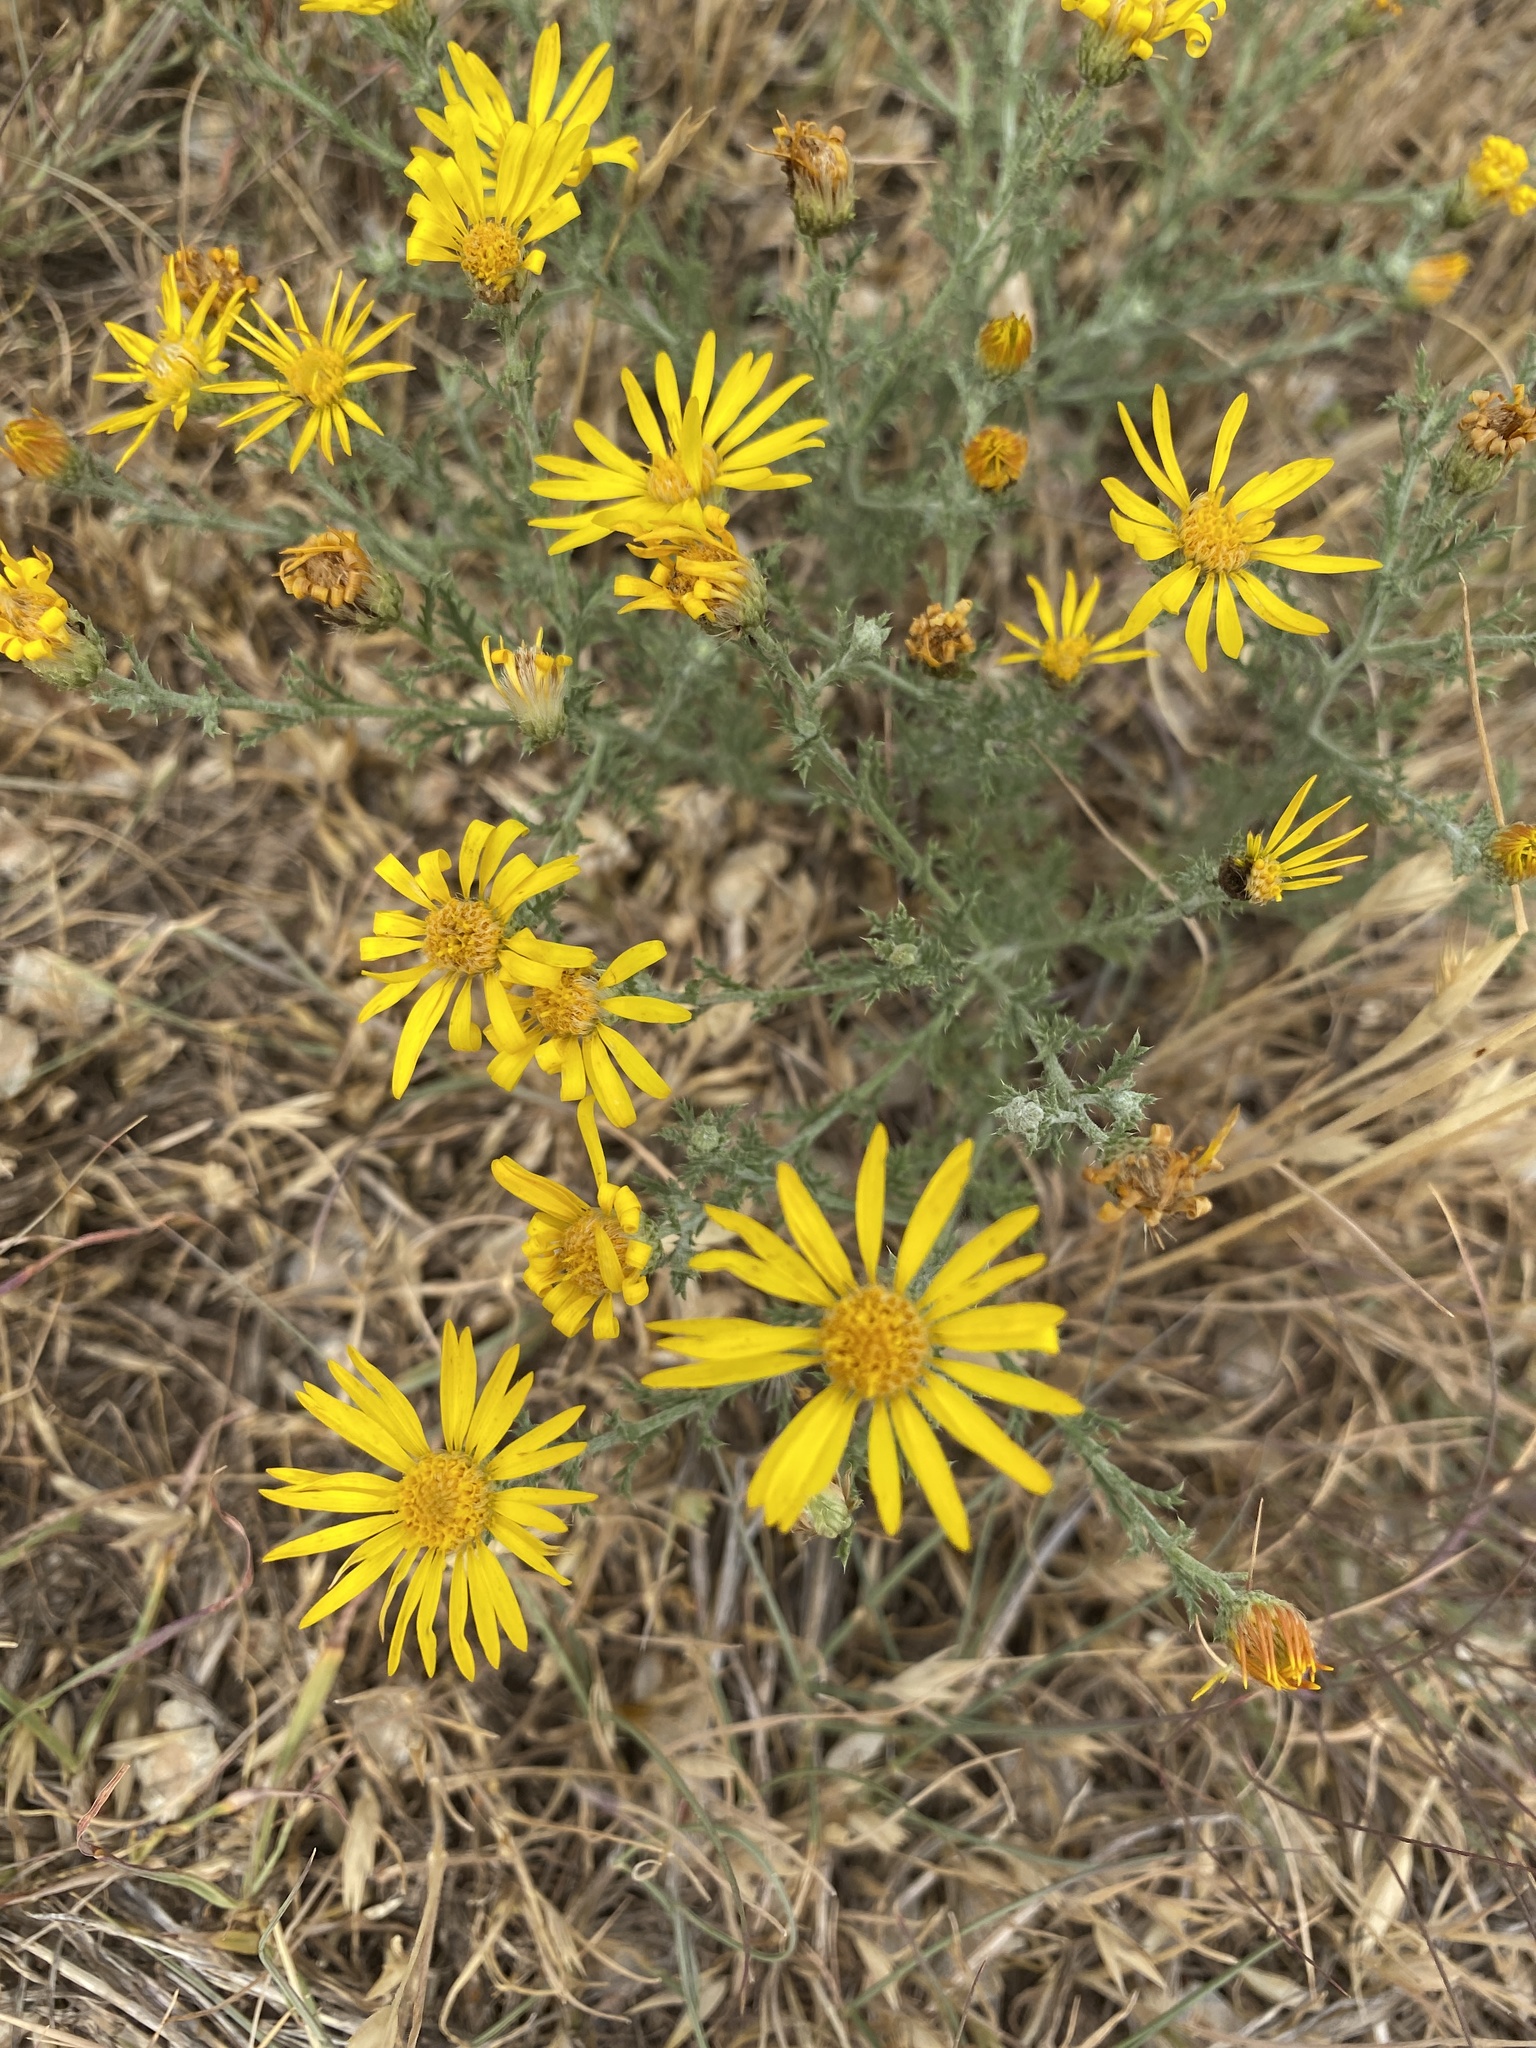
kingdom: Plantae
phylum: Tracheophyta
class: Magnoliopsida
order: Asterales
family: Asteraceae
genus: Xanthisma
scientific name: Xanthisma spinulosum
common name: Spiny goldenweed
